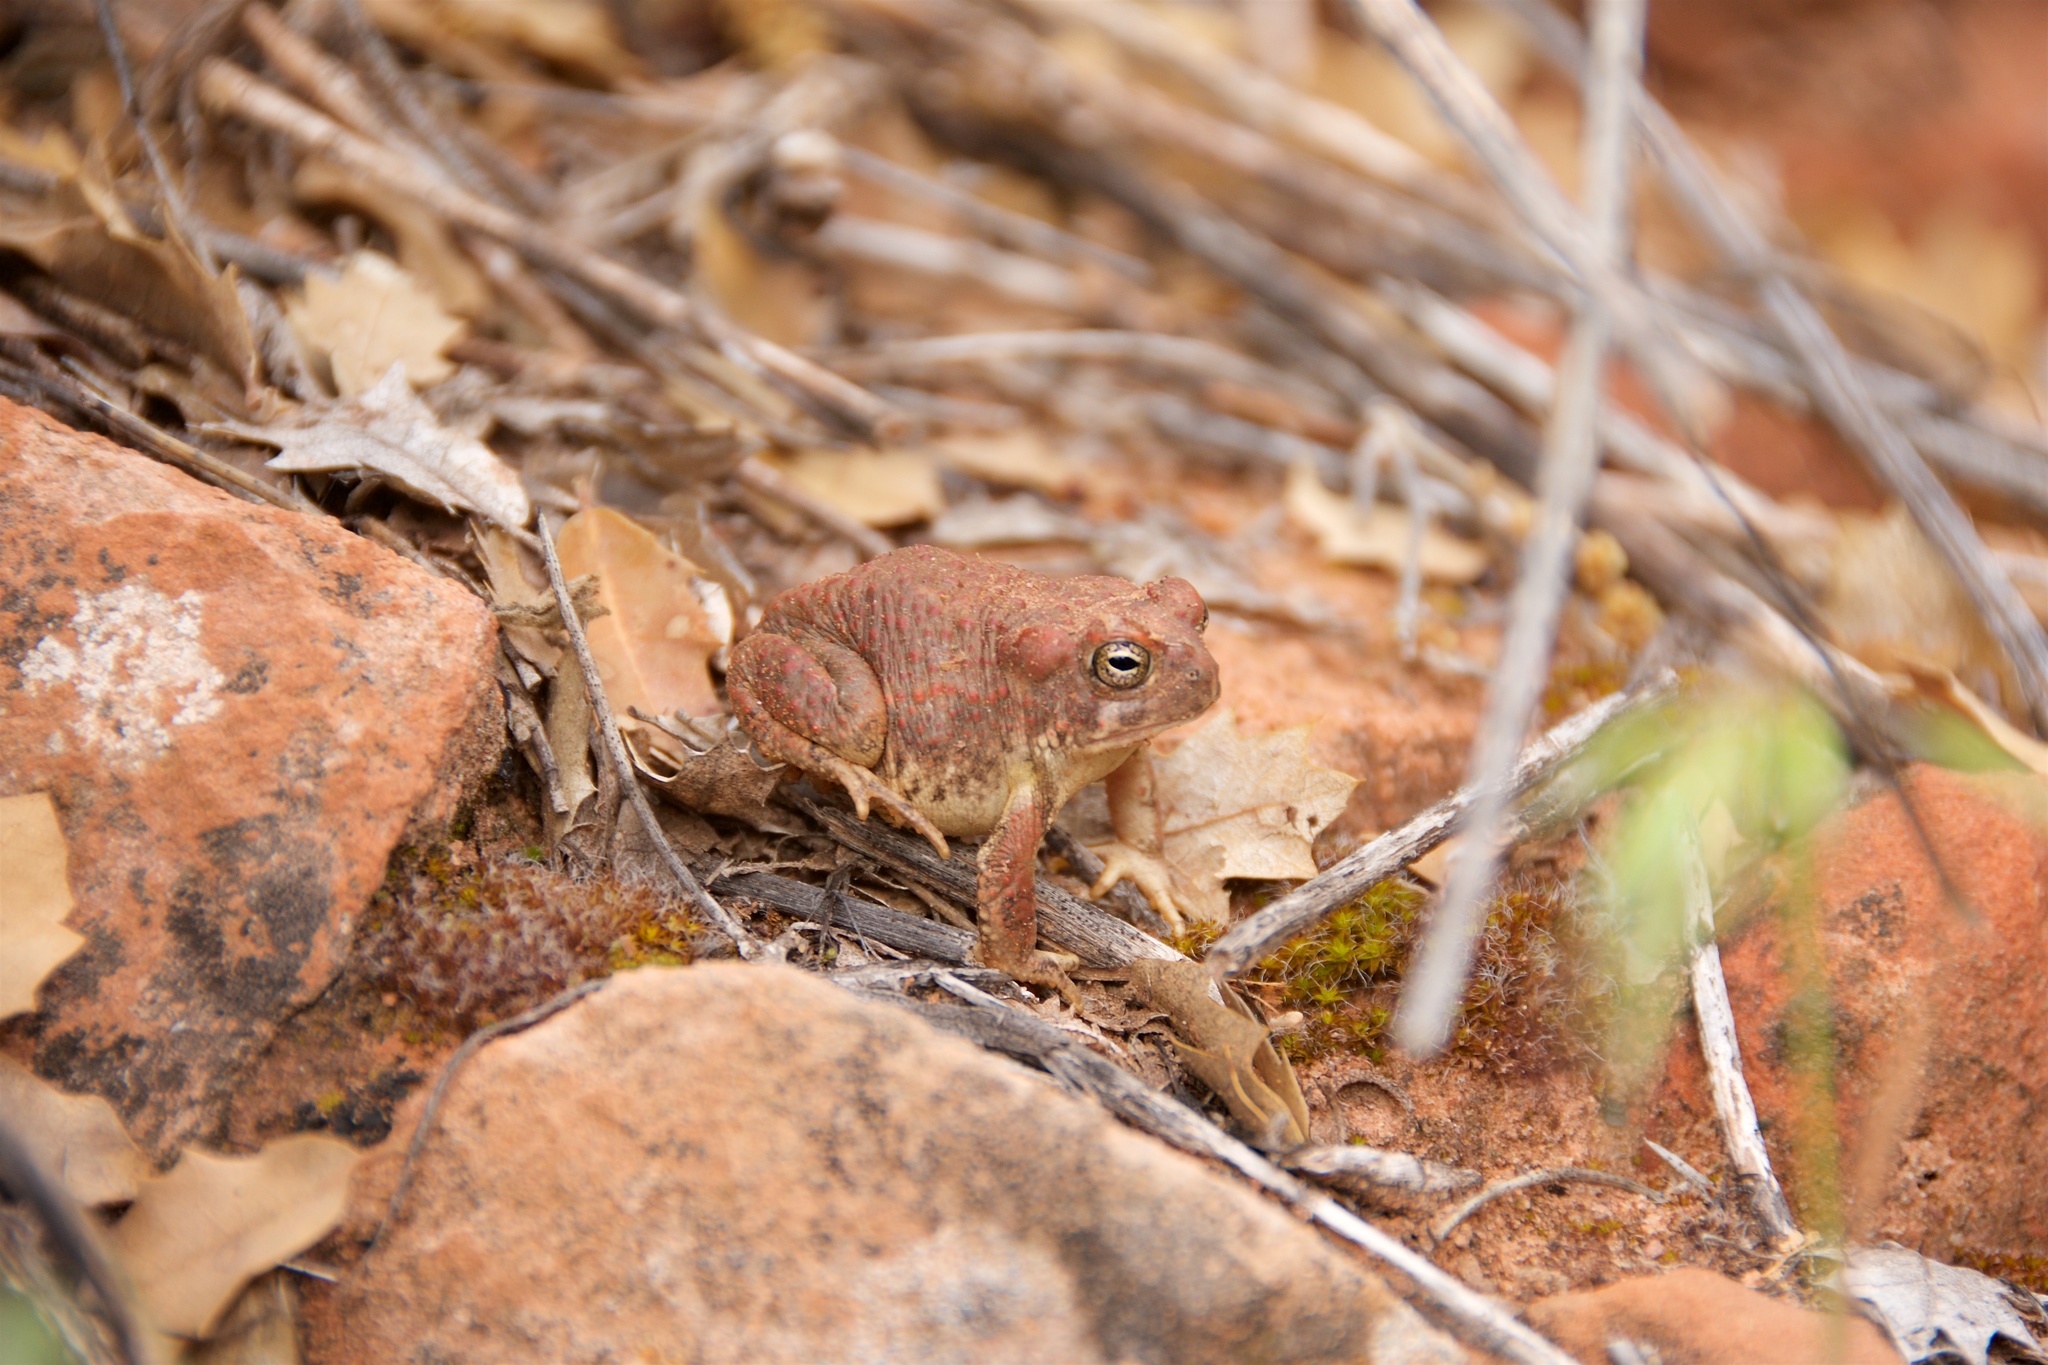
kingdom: Animalia
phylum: Chordata
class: Amphibia
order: Anura
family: Bufonidae
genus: Anaxyrus
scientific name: Anaxyrus microscaphus
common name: Arizona toad
